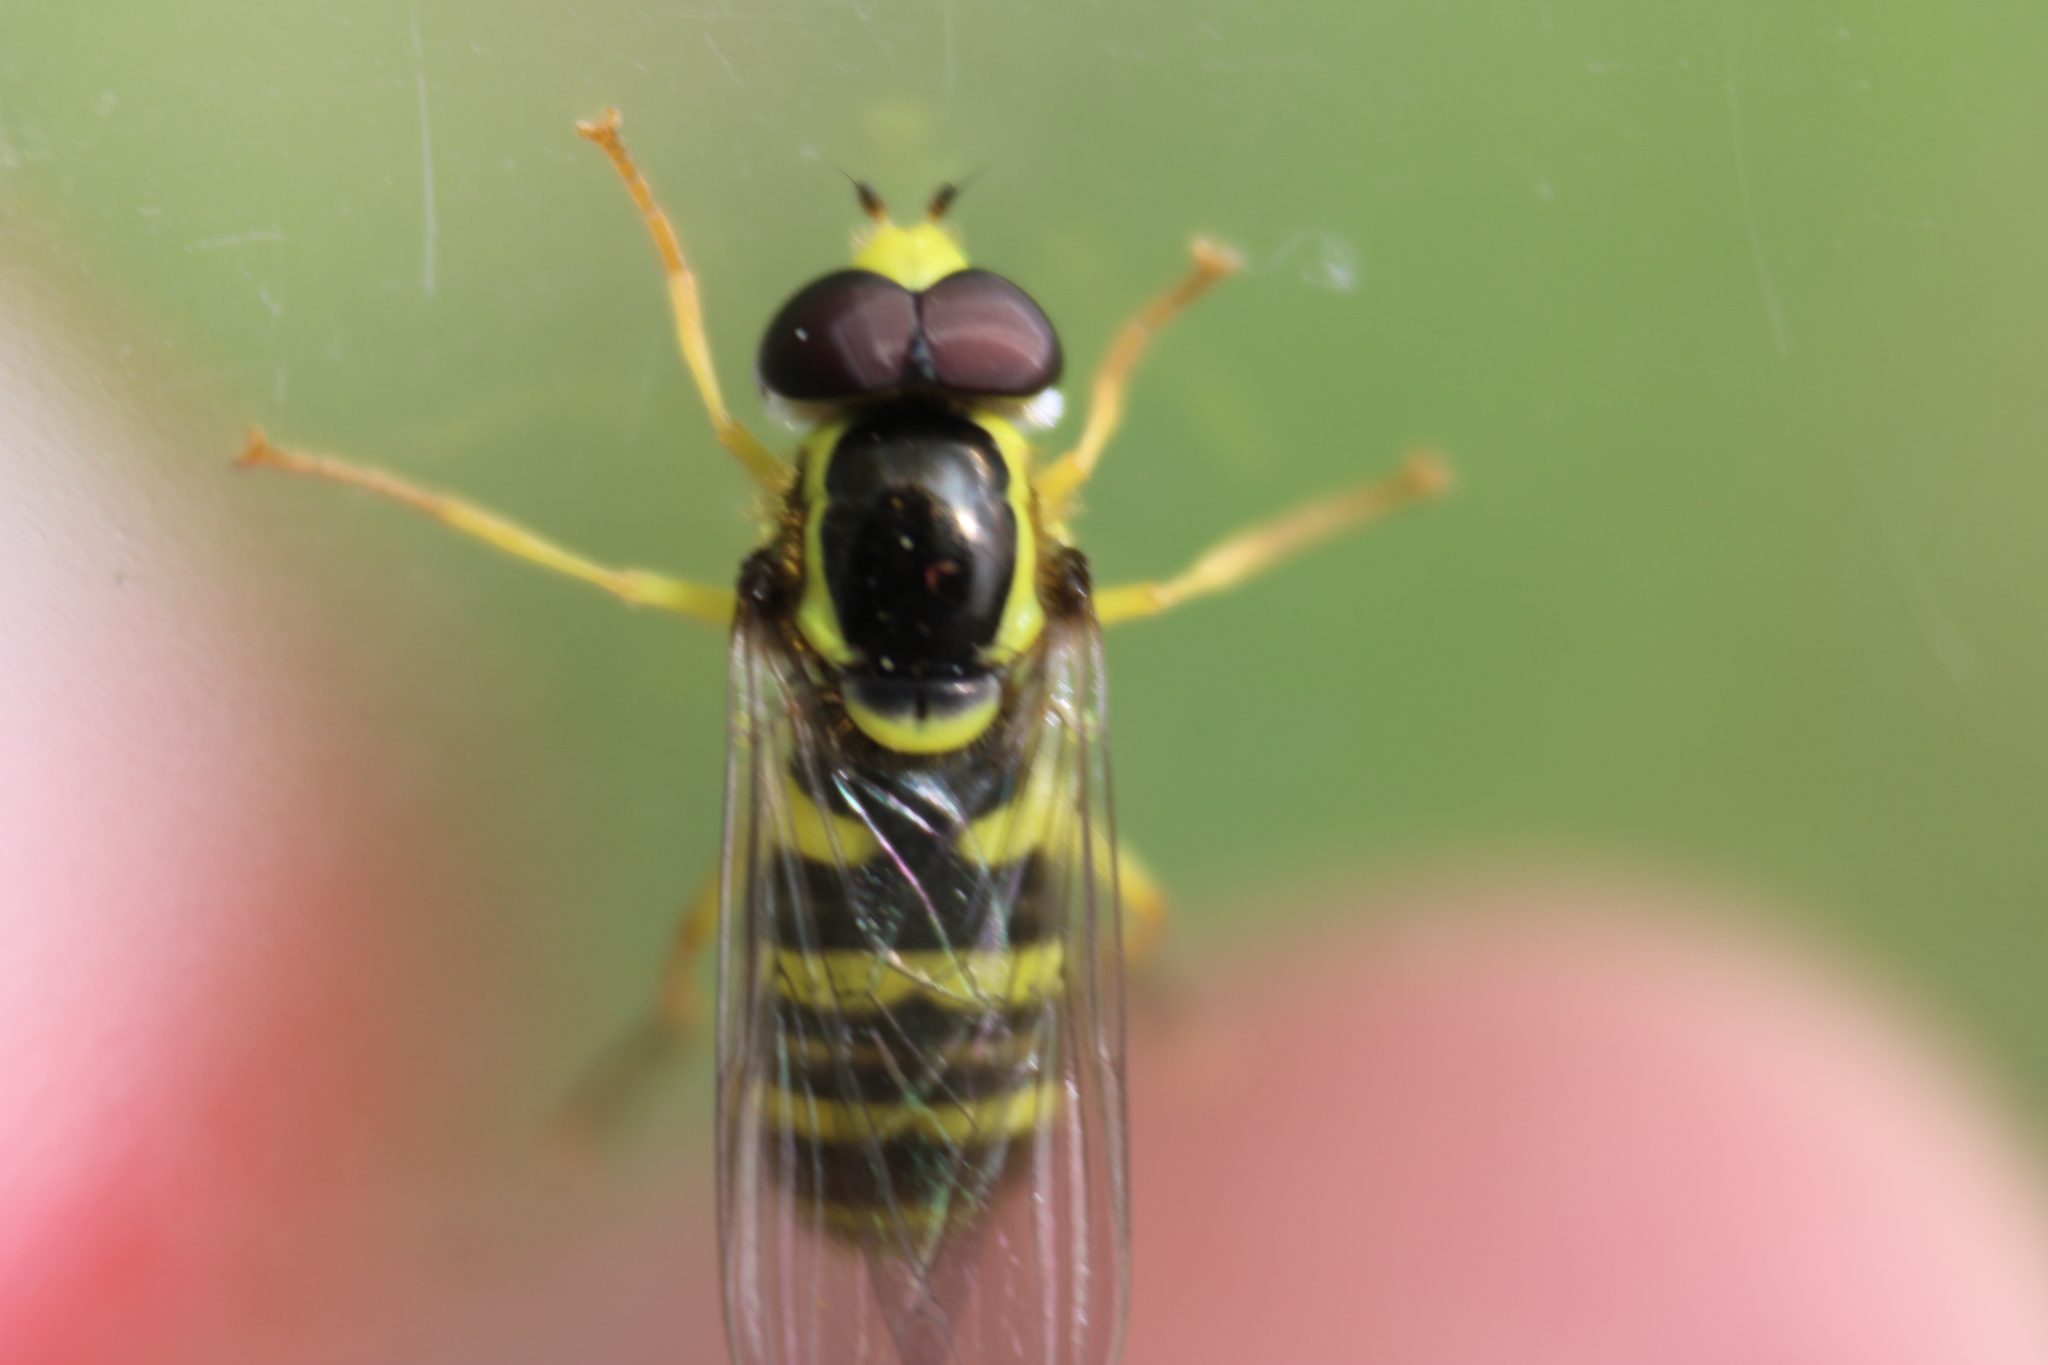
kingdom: Animalia
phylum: Arthropoda
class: Insecta
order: Diptera
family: Syrphidae
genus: Philhelius
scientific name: Philhelius flavipes
